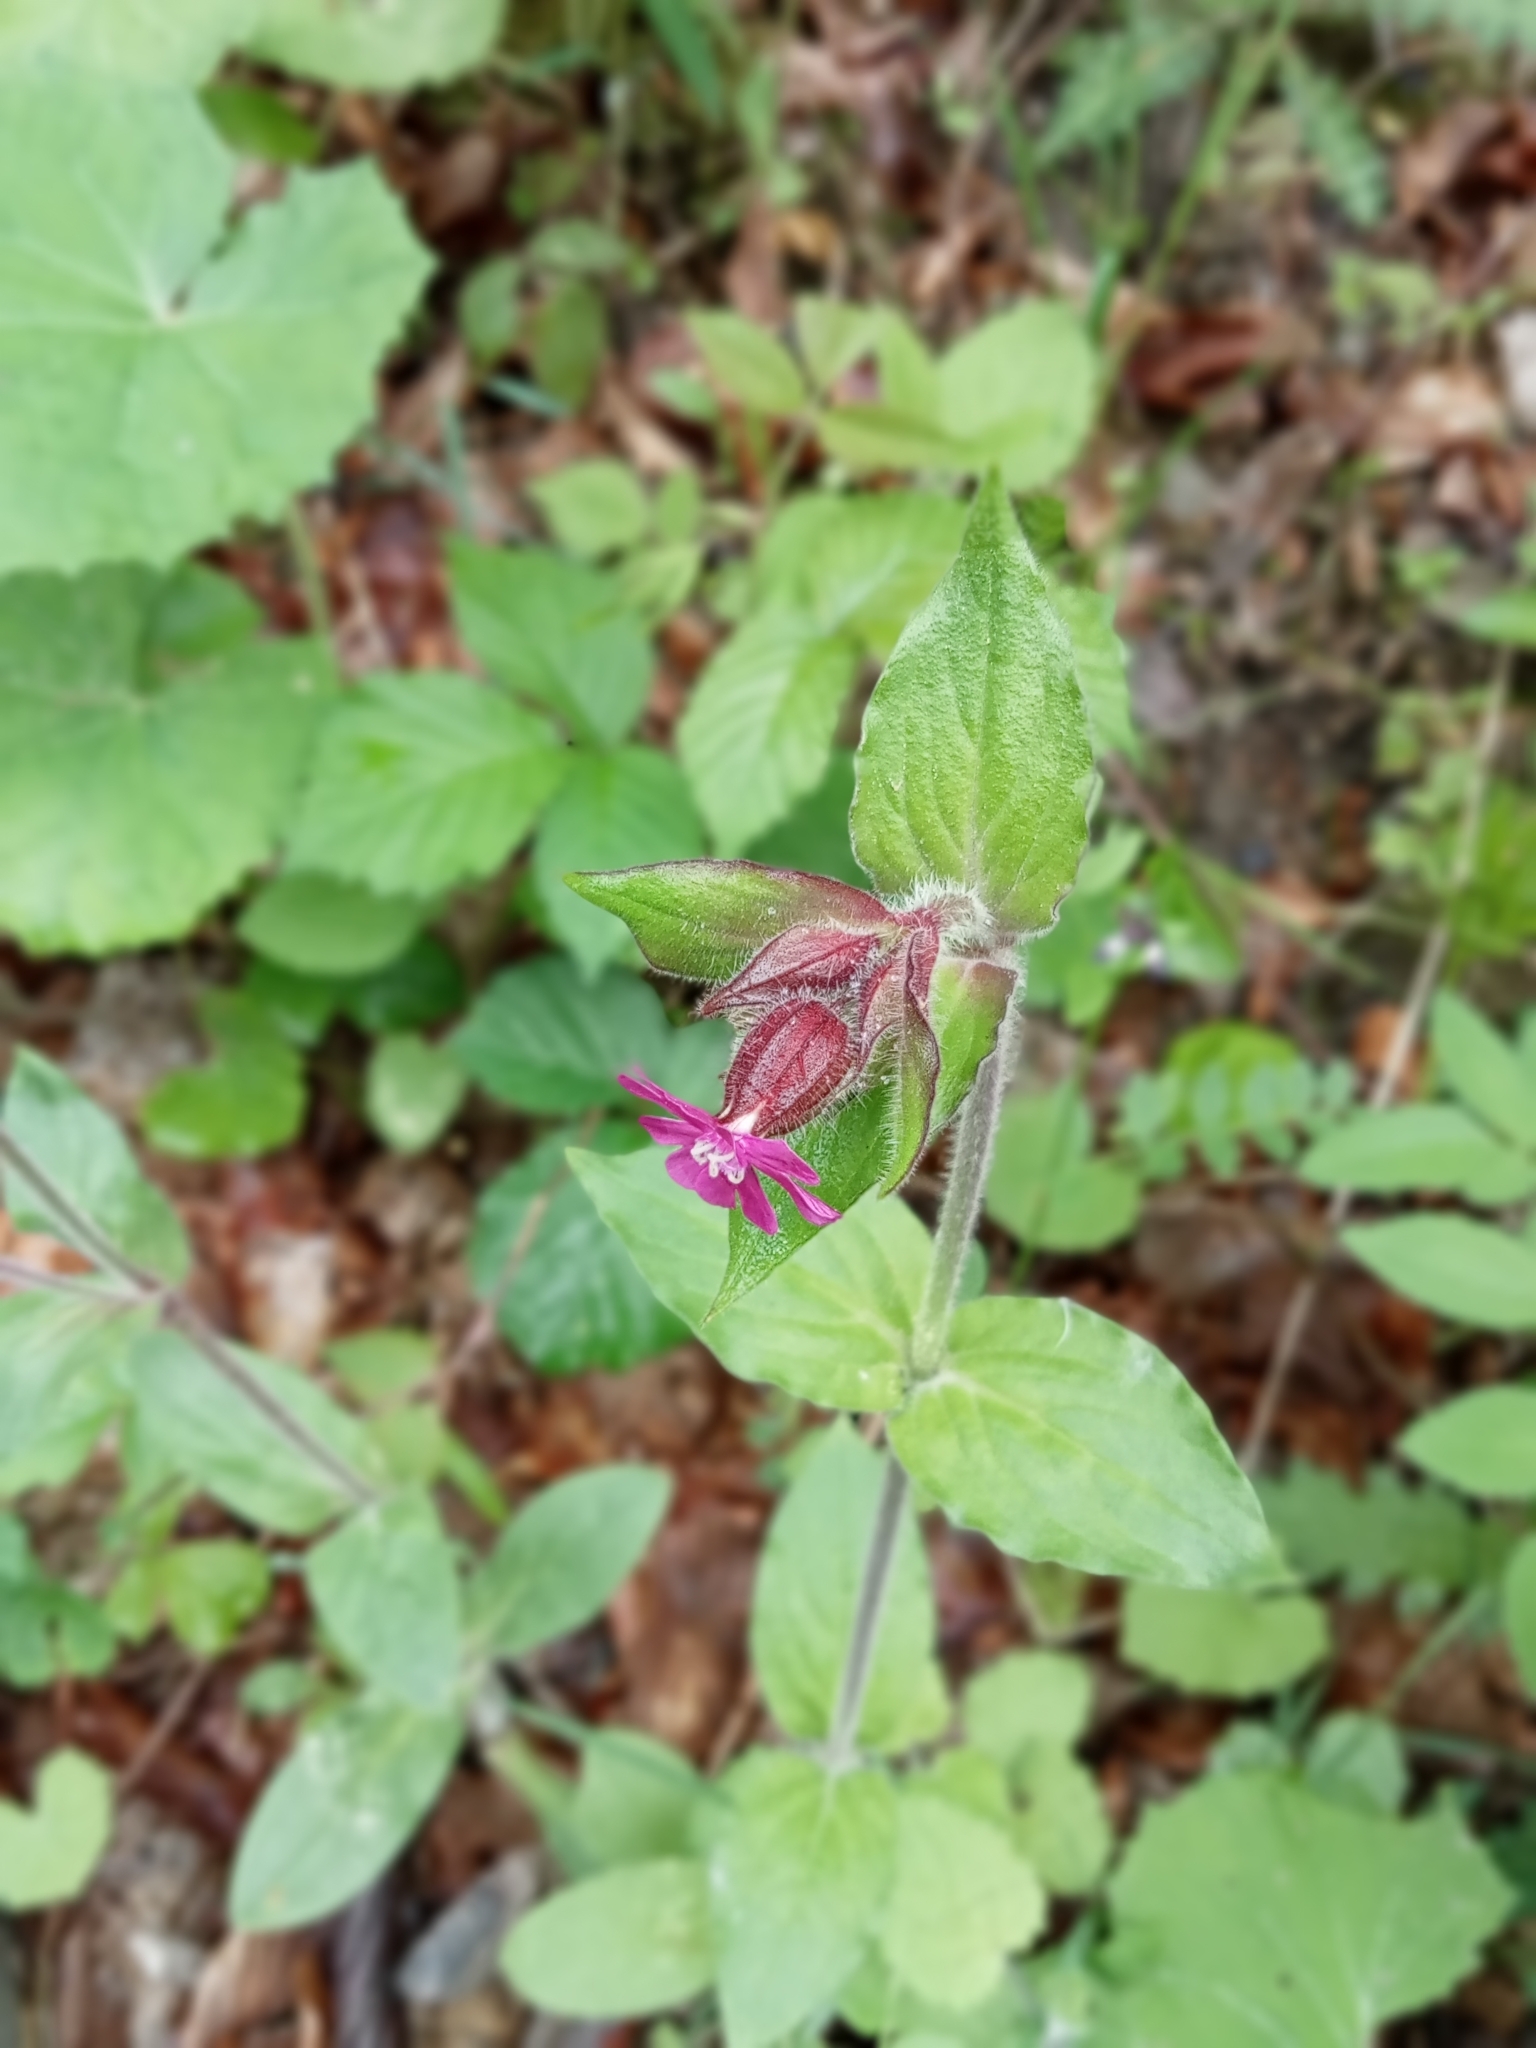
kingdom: Plantae
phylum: Tracheophyta
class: Magnoliopsida
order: Caryophyllales
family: Caryophyllaceae
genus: Silene
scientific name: Silene dioica
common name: Red campion
